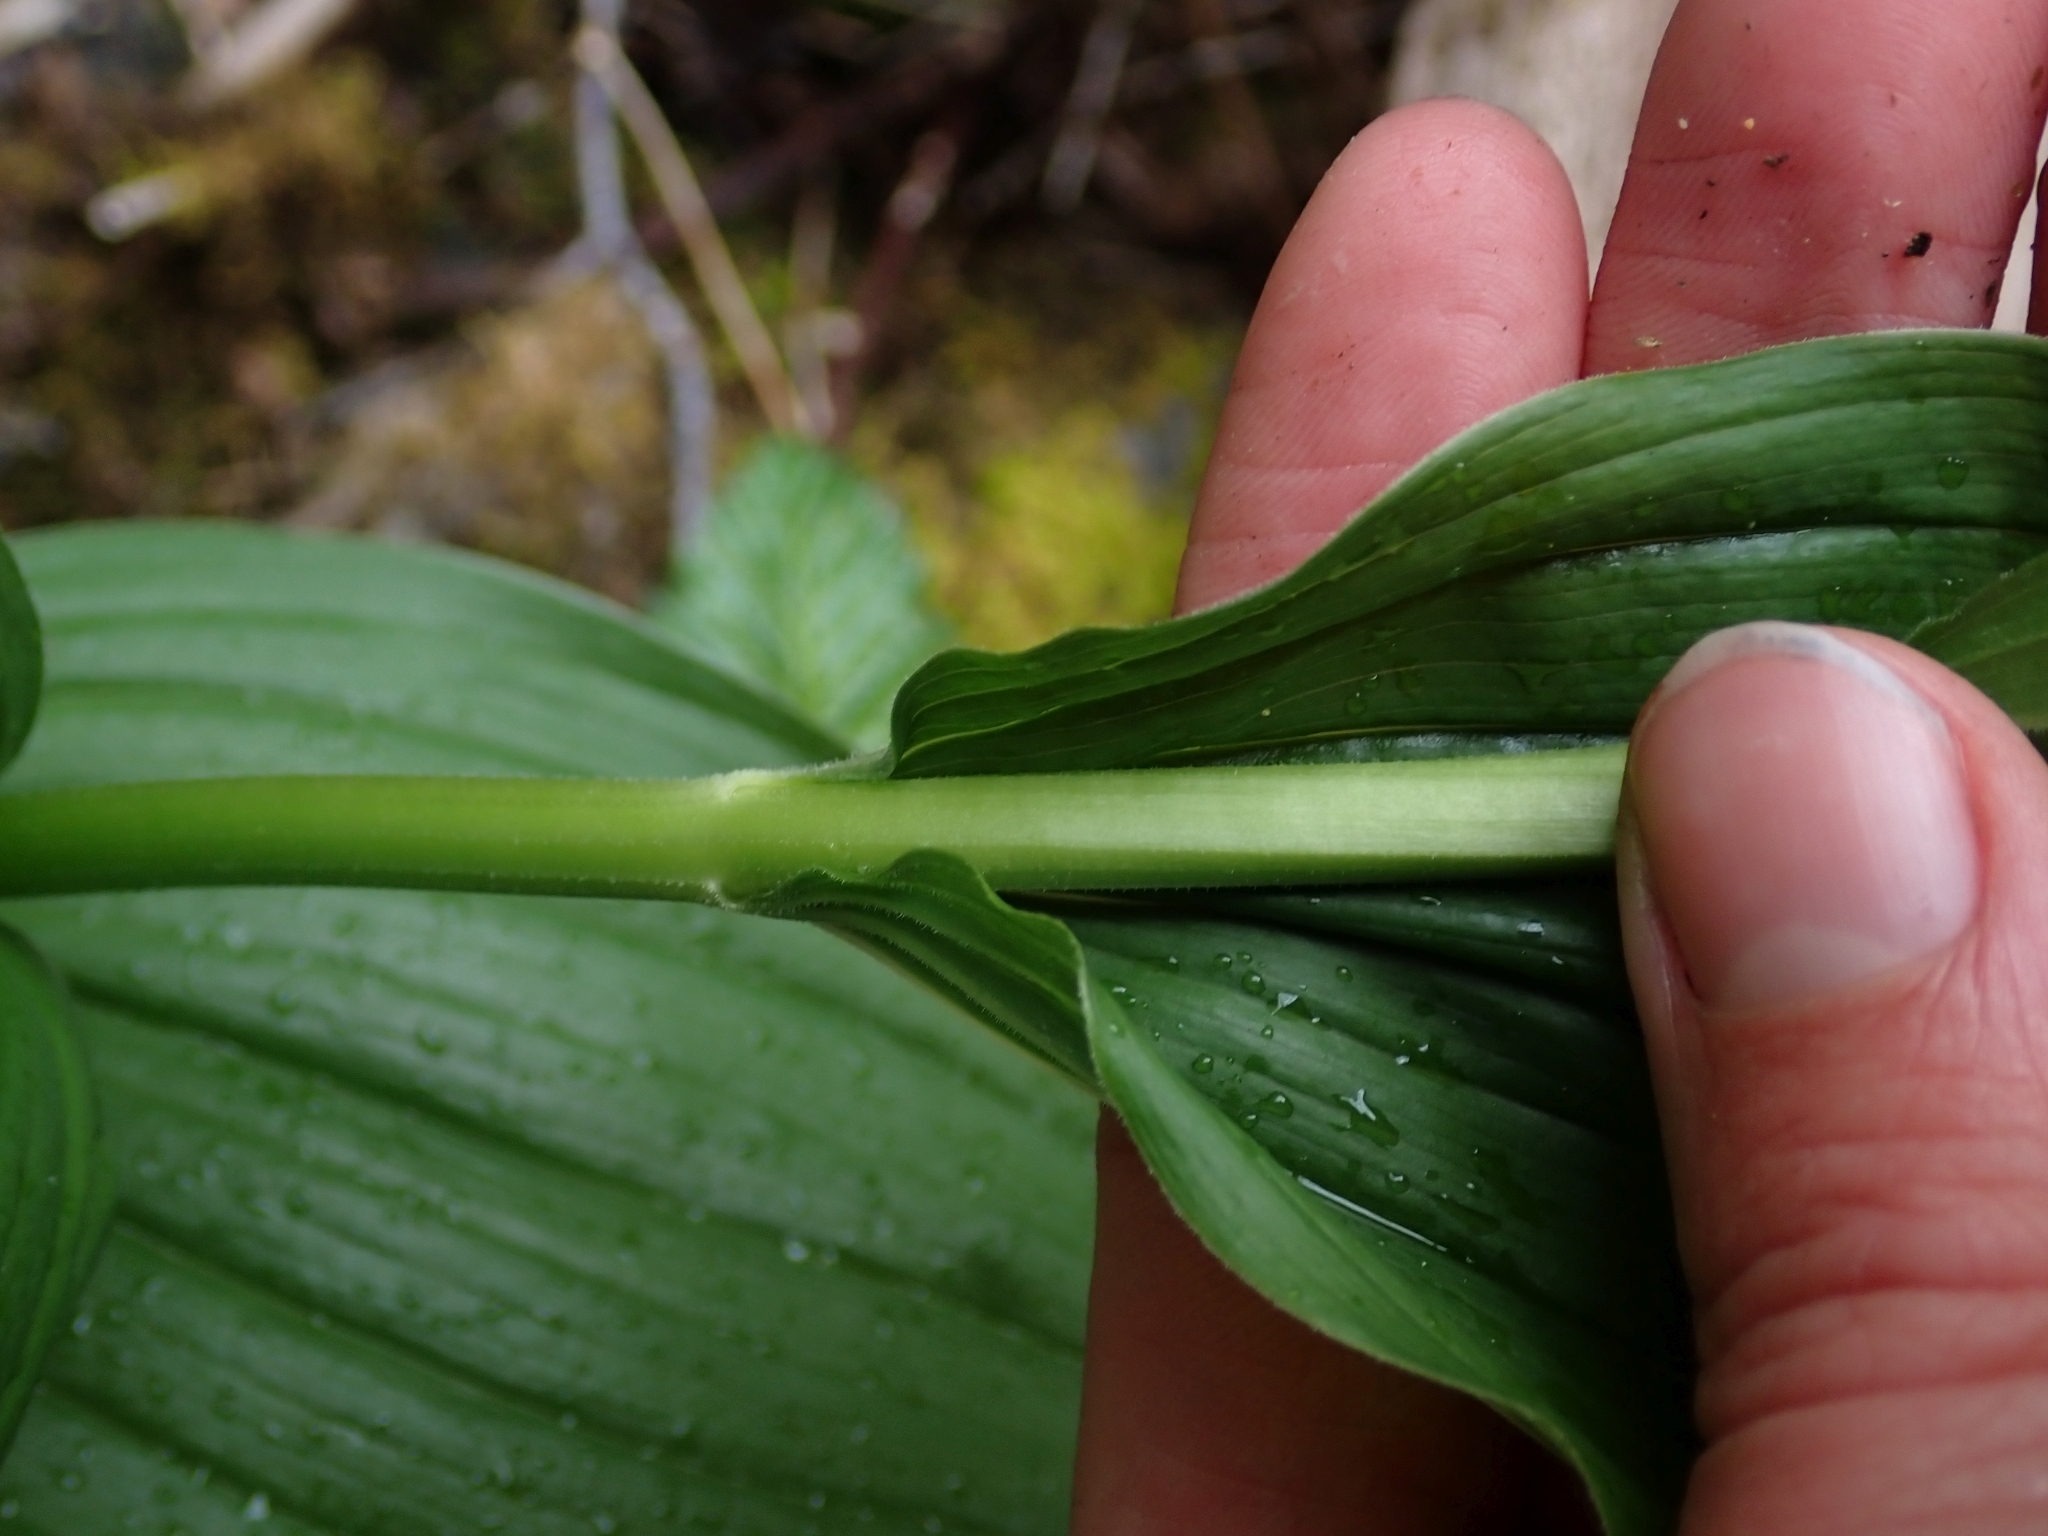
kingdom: Plantae
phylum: Tracheophyta
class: Liliopsida
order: Asparagales
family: Asparagaceae
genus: Maianthemum
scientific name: Maianthemum racemosum
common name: False spikenard
